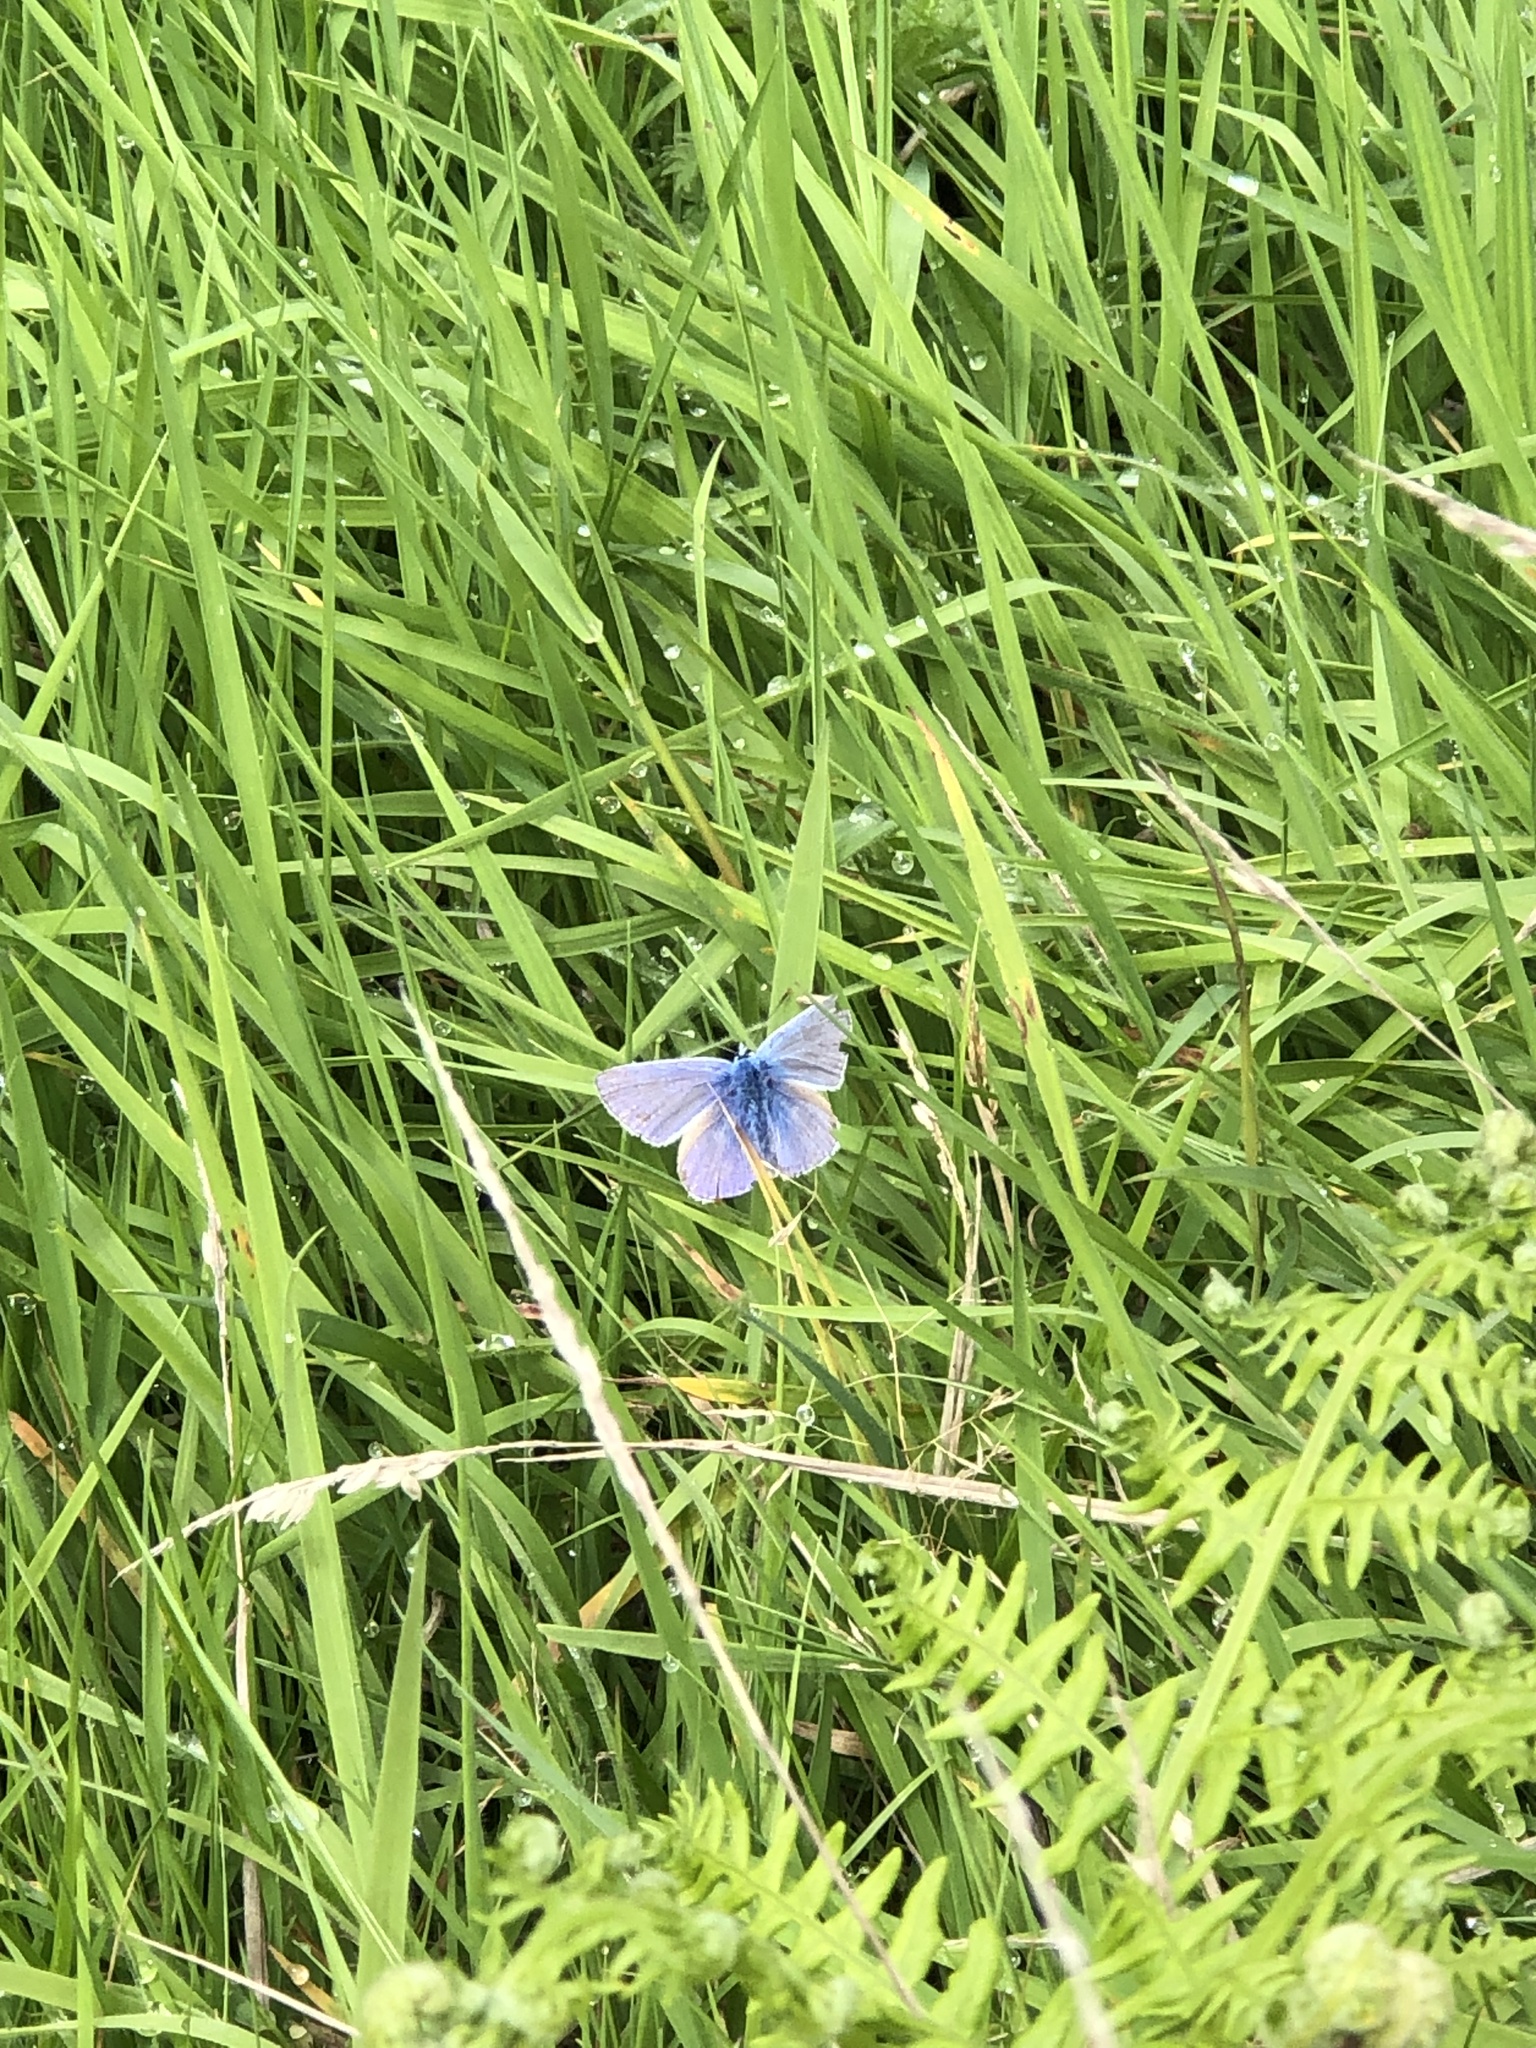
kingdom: Animalia
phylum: Arthropoda
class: Insecta
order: Lepidoptera
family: Lycaenidae
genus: Polyommatus
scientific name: Polyommatus icarus
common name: Common blue
